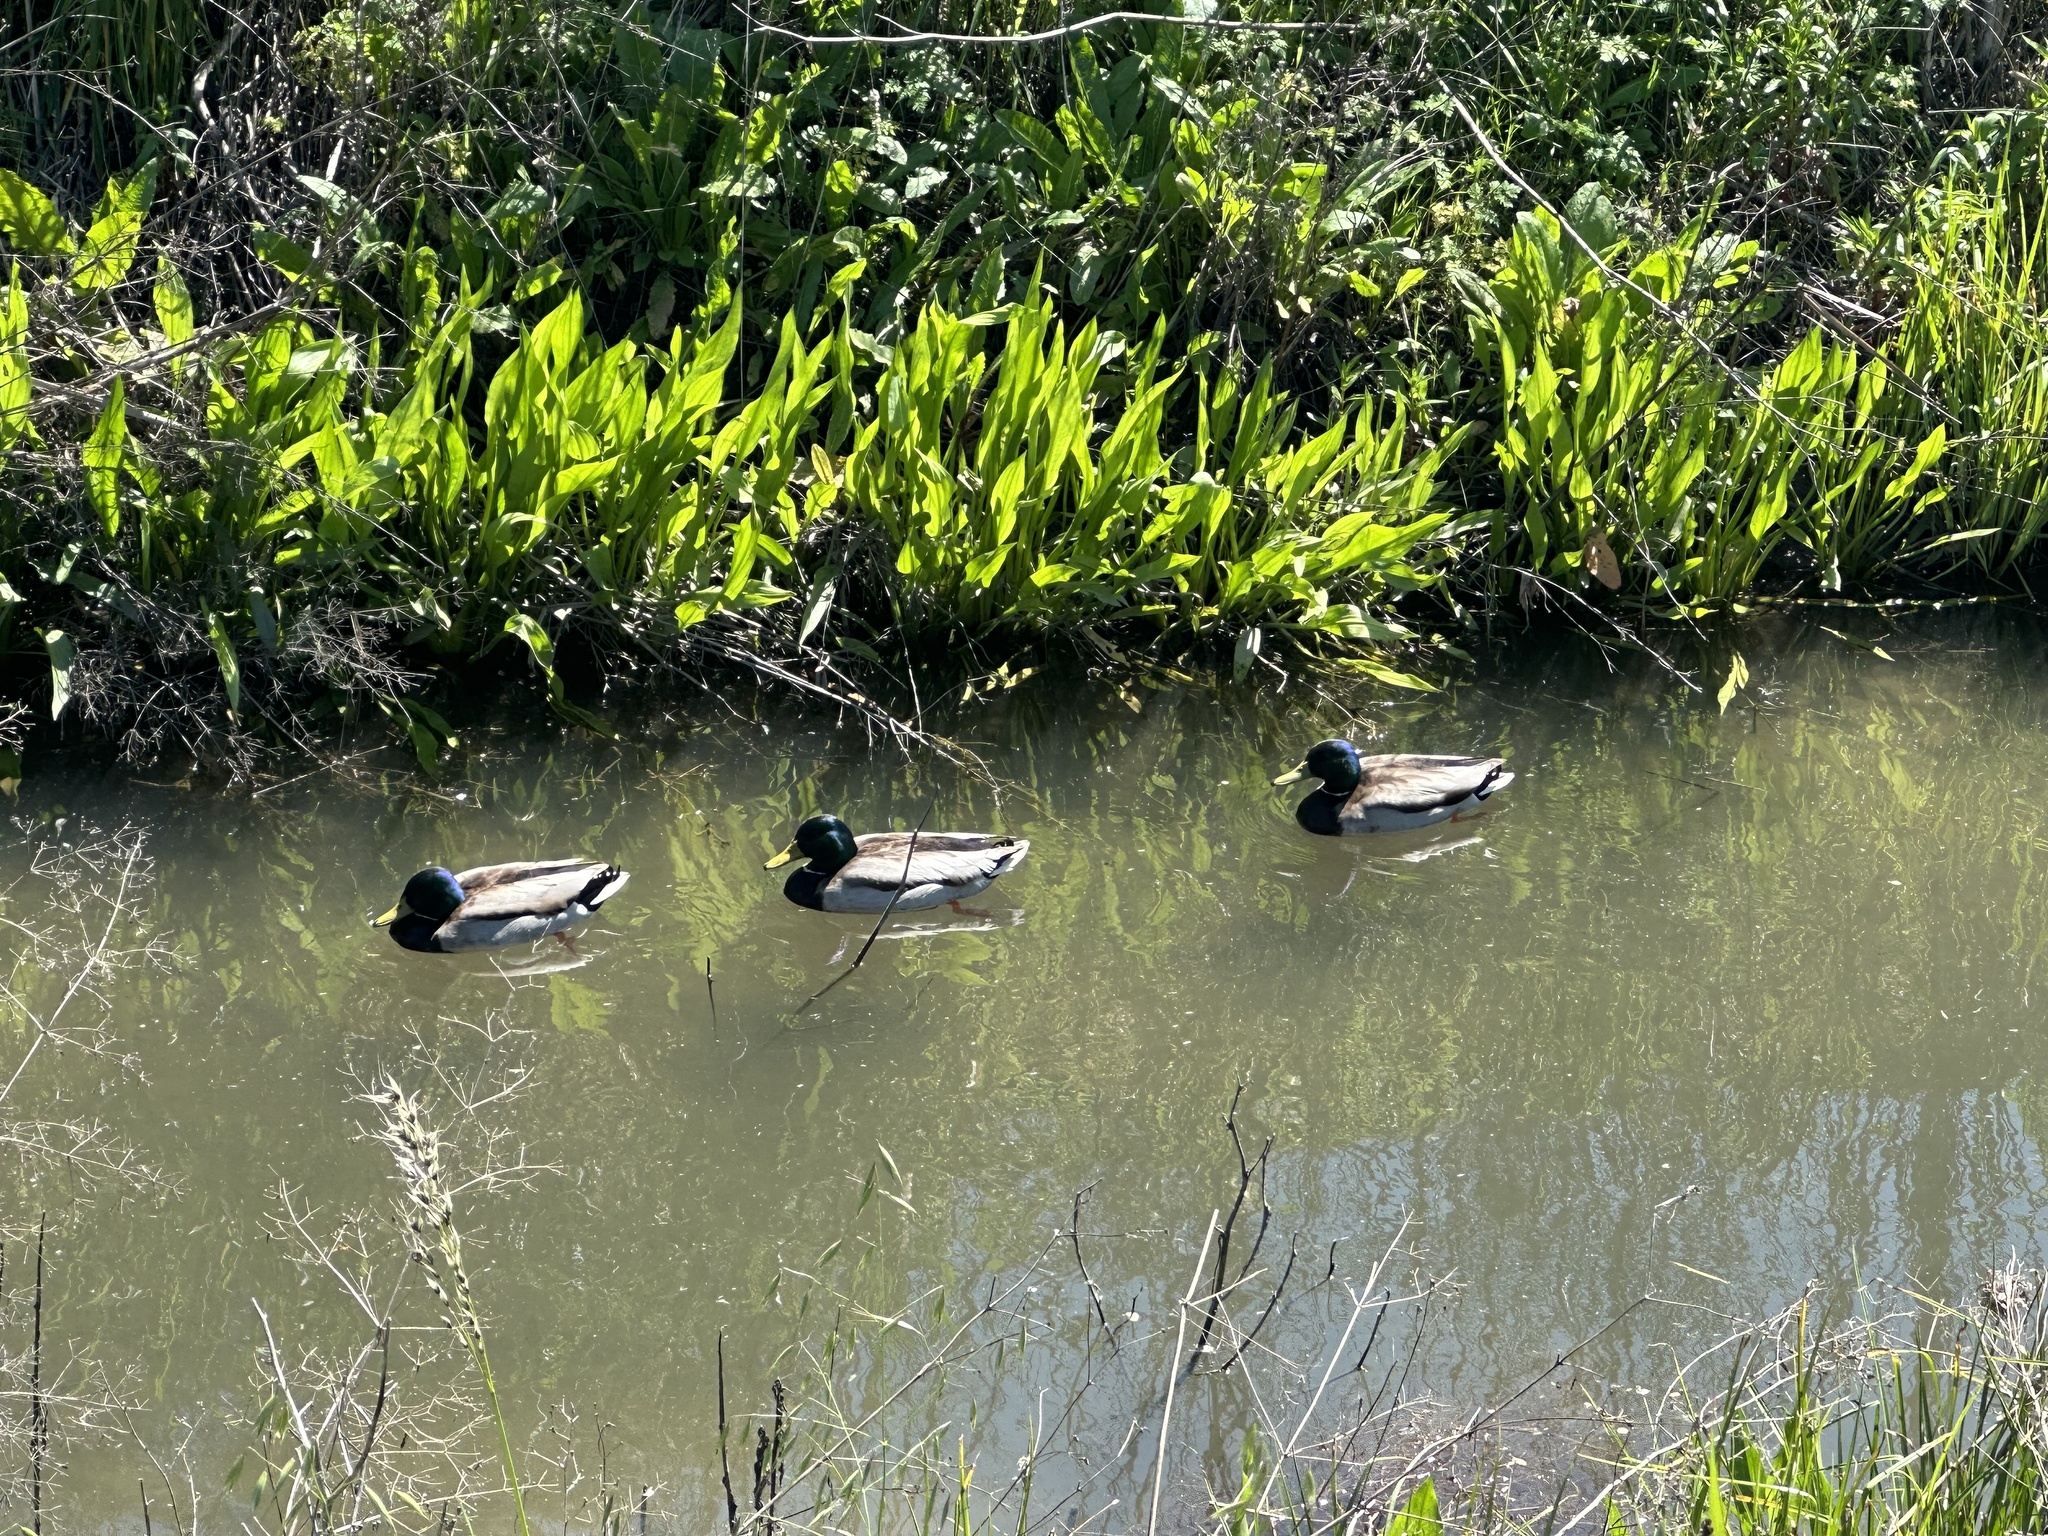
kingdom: Animalia
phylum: Chordata
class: Aves
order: Anseriformes
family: Anatidae
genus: Anas
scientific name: Anas platyrhynchos
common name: Mallard
